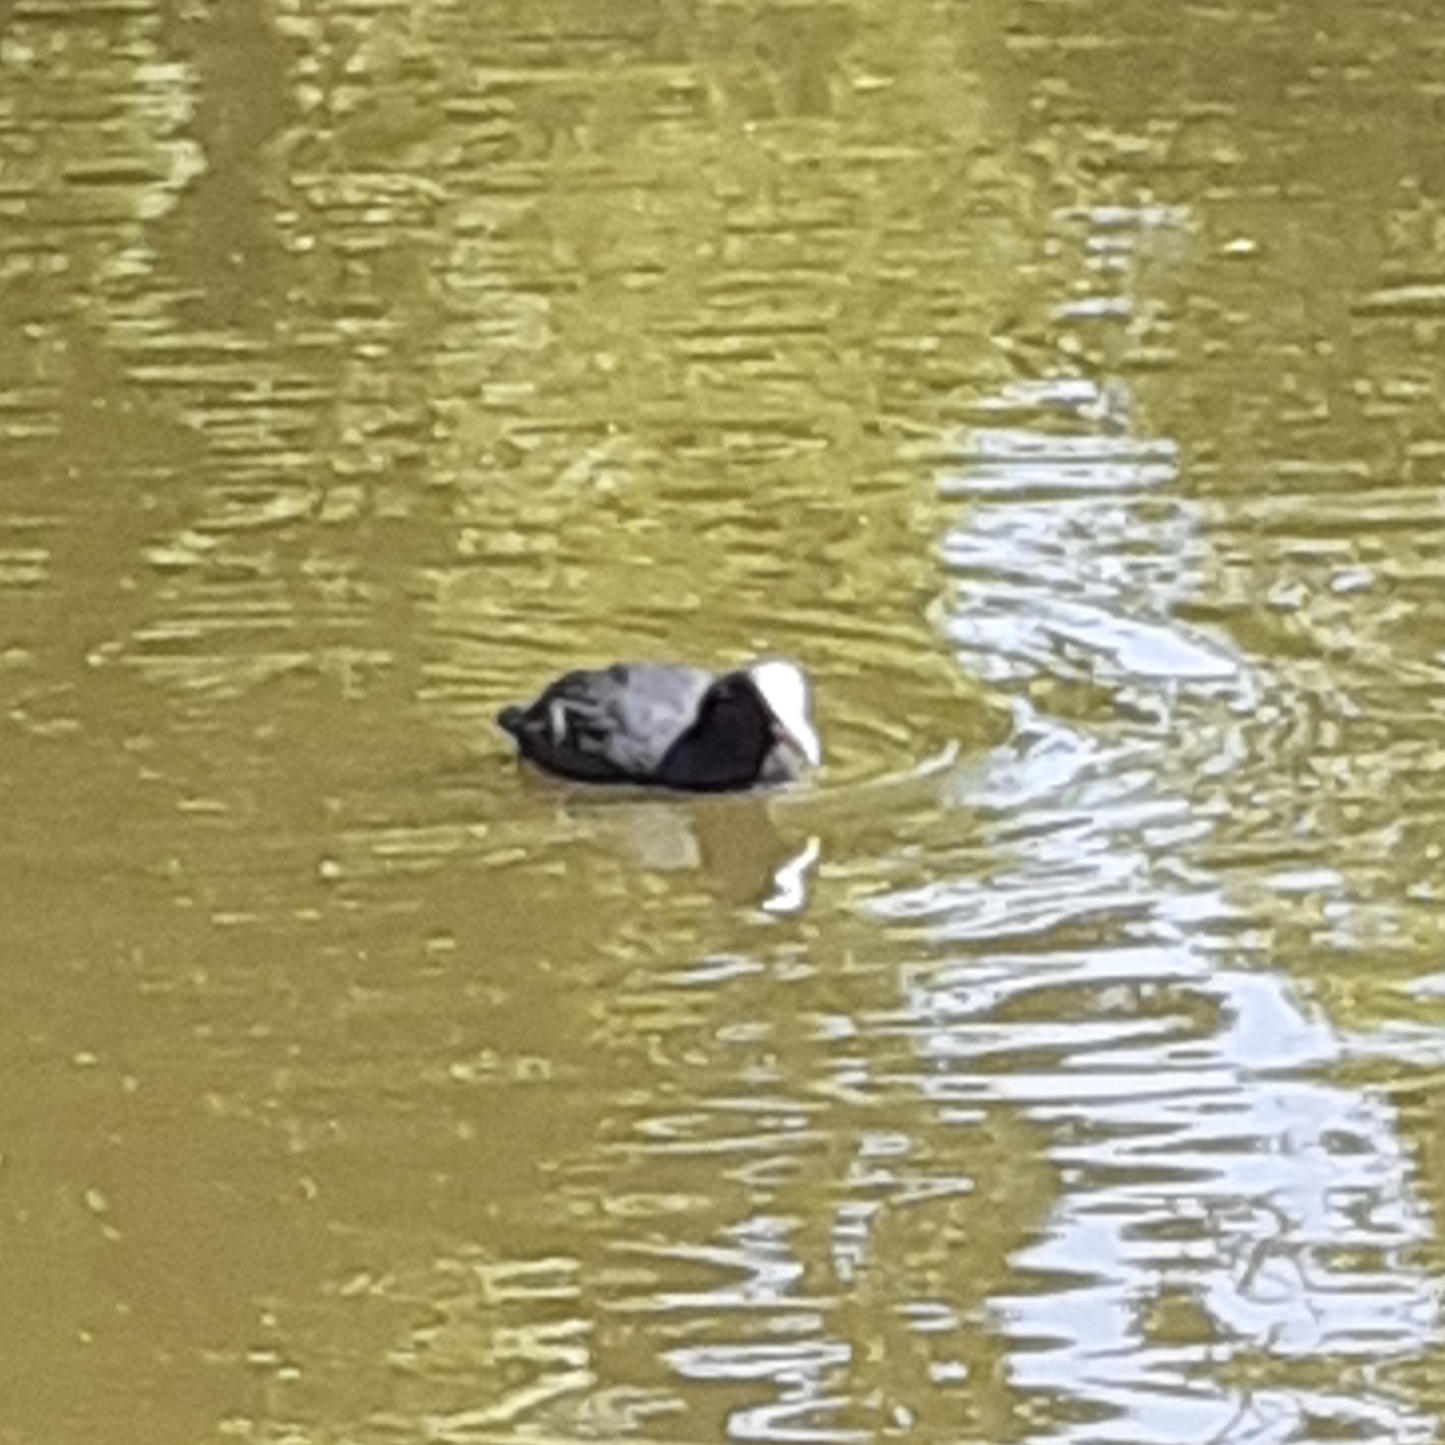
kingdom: Animalia
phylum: Chordata
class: Aves
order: Gruiformes
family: Rallidae
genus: Fulica
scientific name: Fulica atra
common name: Eurasian coot
